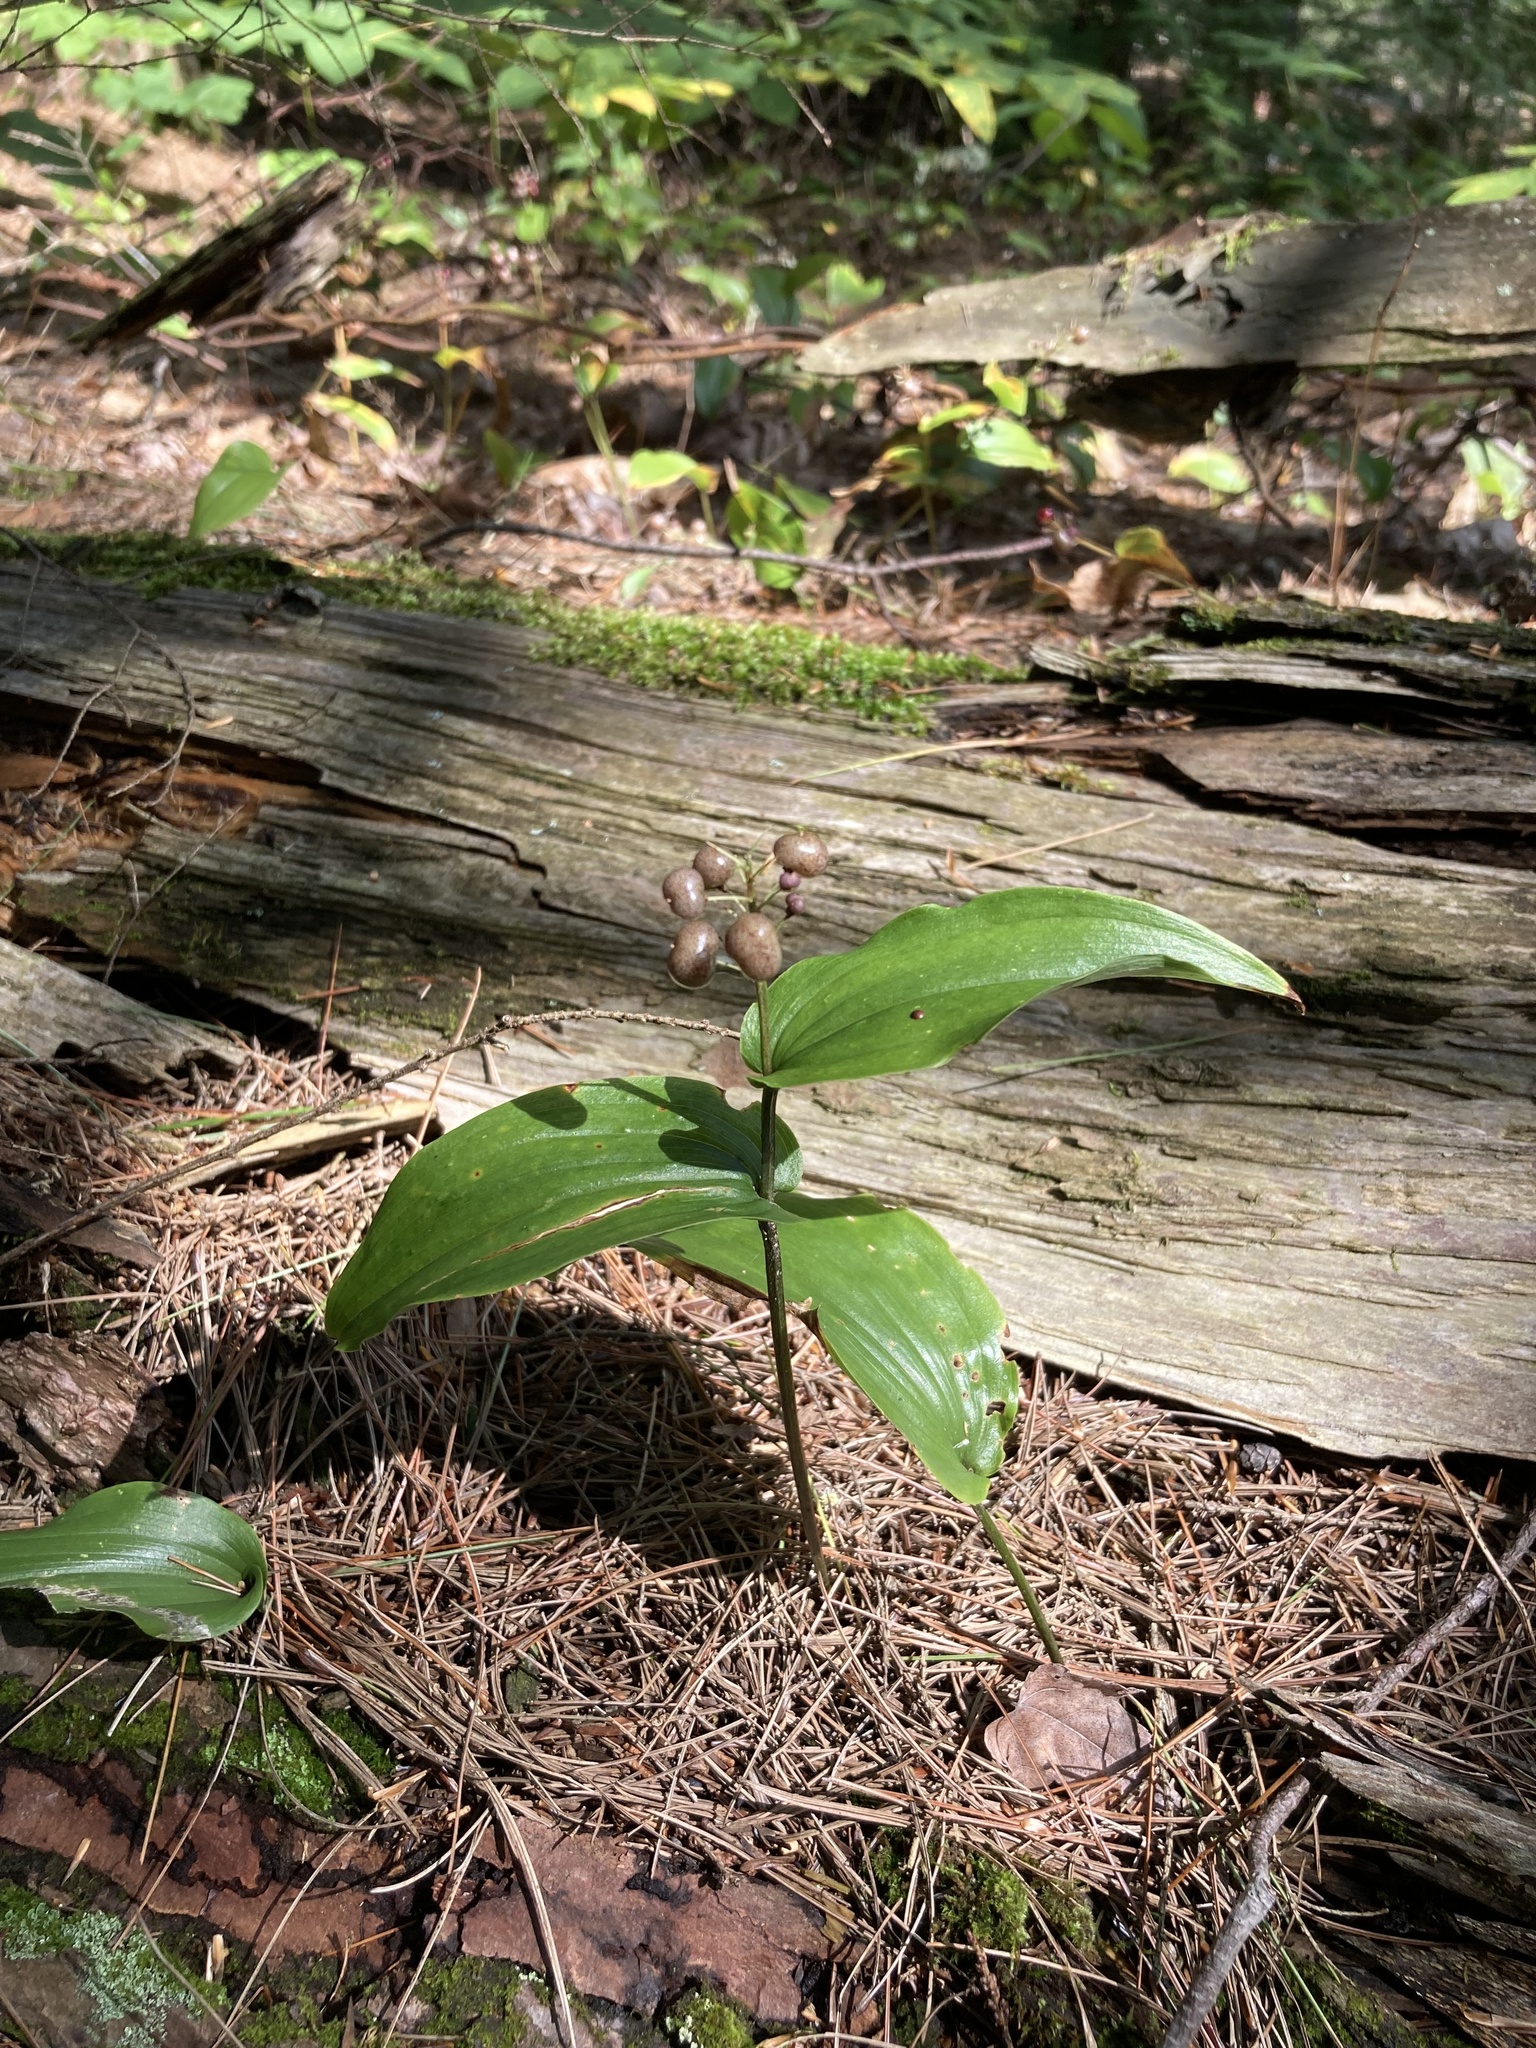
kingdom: Plantae
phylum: Tracheophyta
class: Liliopsida
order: Asparagales
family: Asparagaceae
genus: Maianthemum
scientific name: Maianthemum canadense
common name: False lily-of-the-valley
